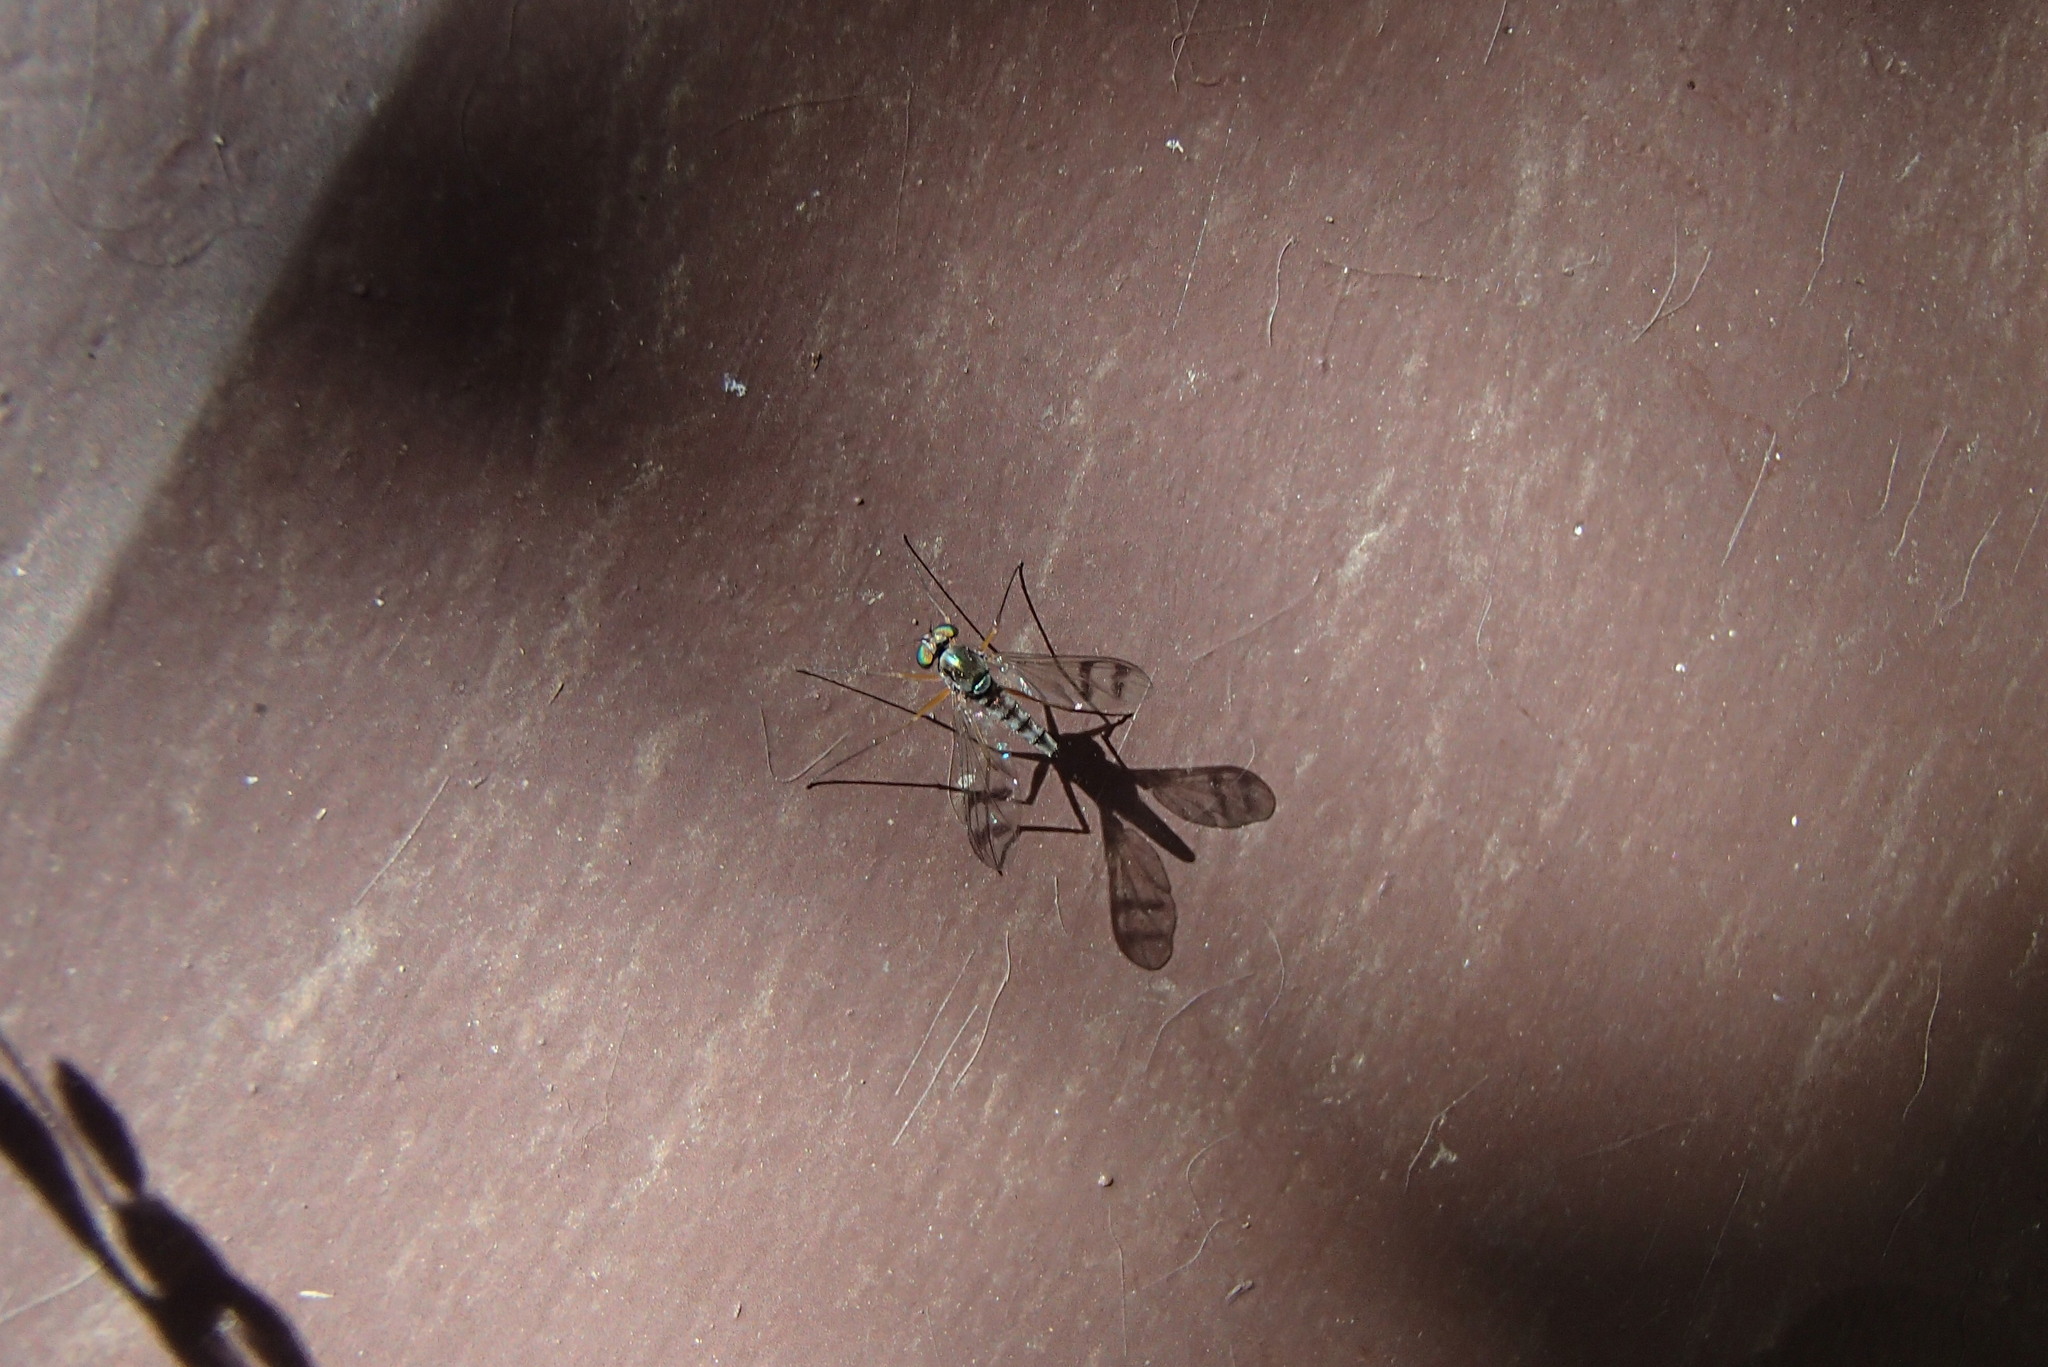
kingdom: Animalia
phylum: Arthropoda
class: Insecta
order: Diptera
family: Dolichopodidae
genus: Heteropsilopus
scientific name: Heteropsilopus squamifer
